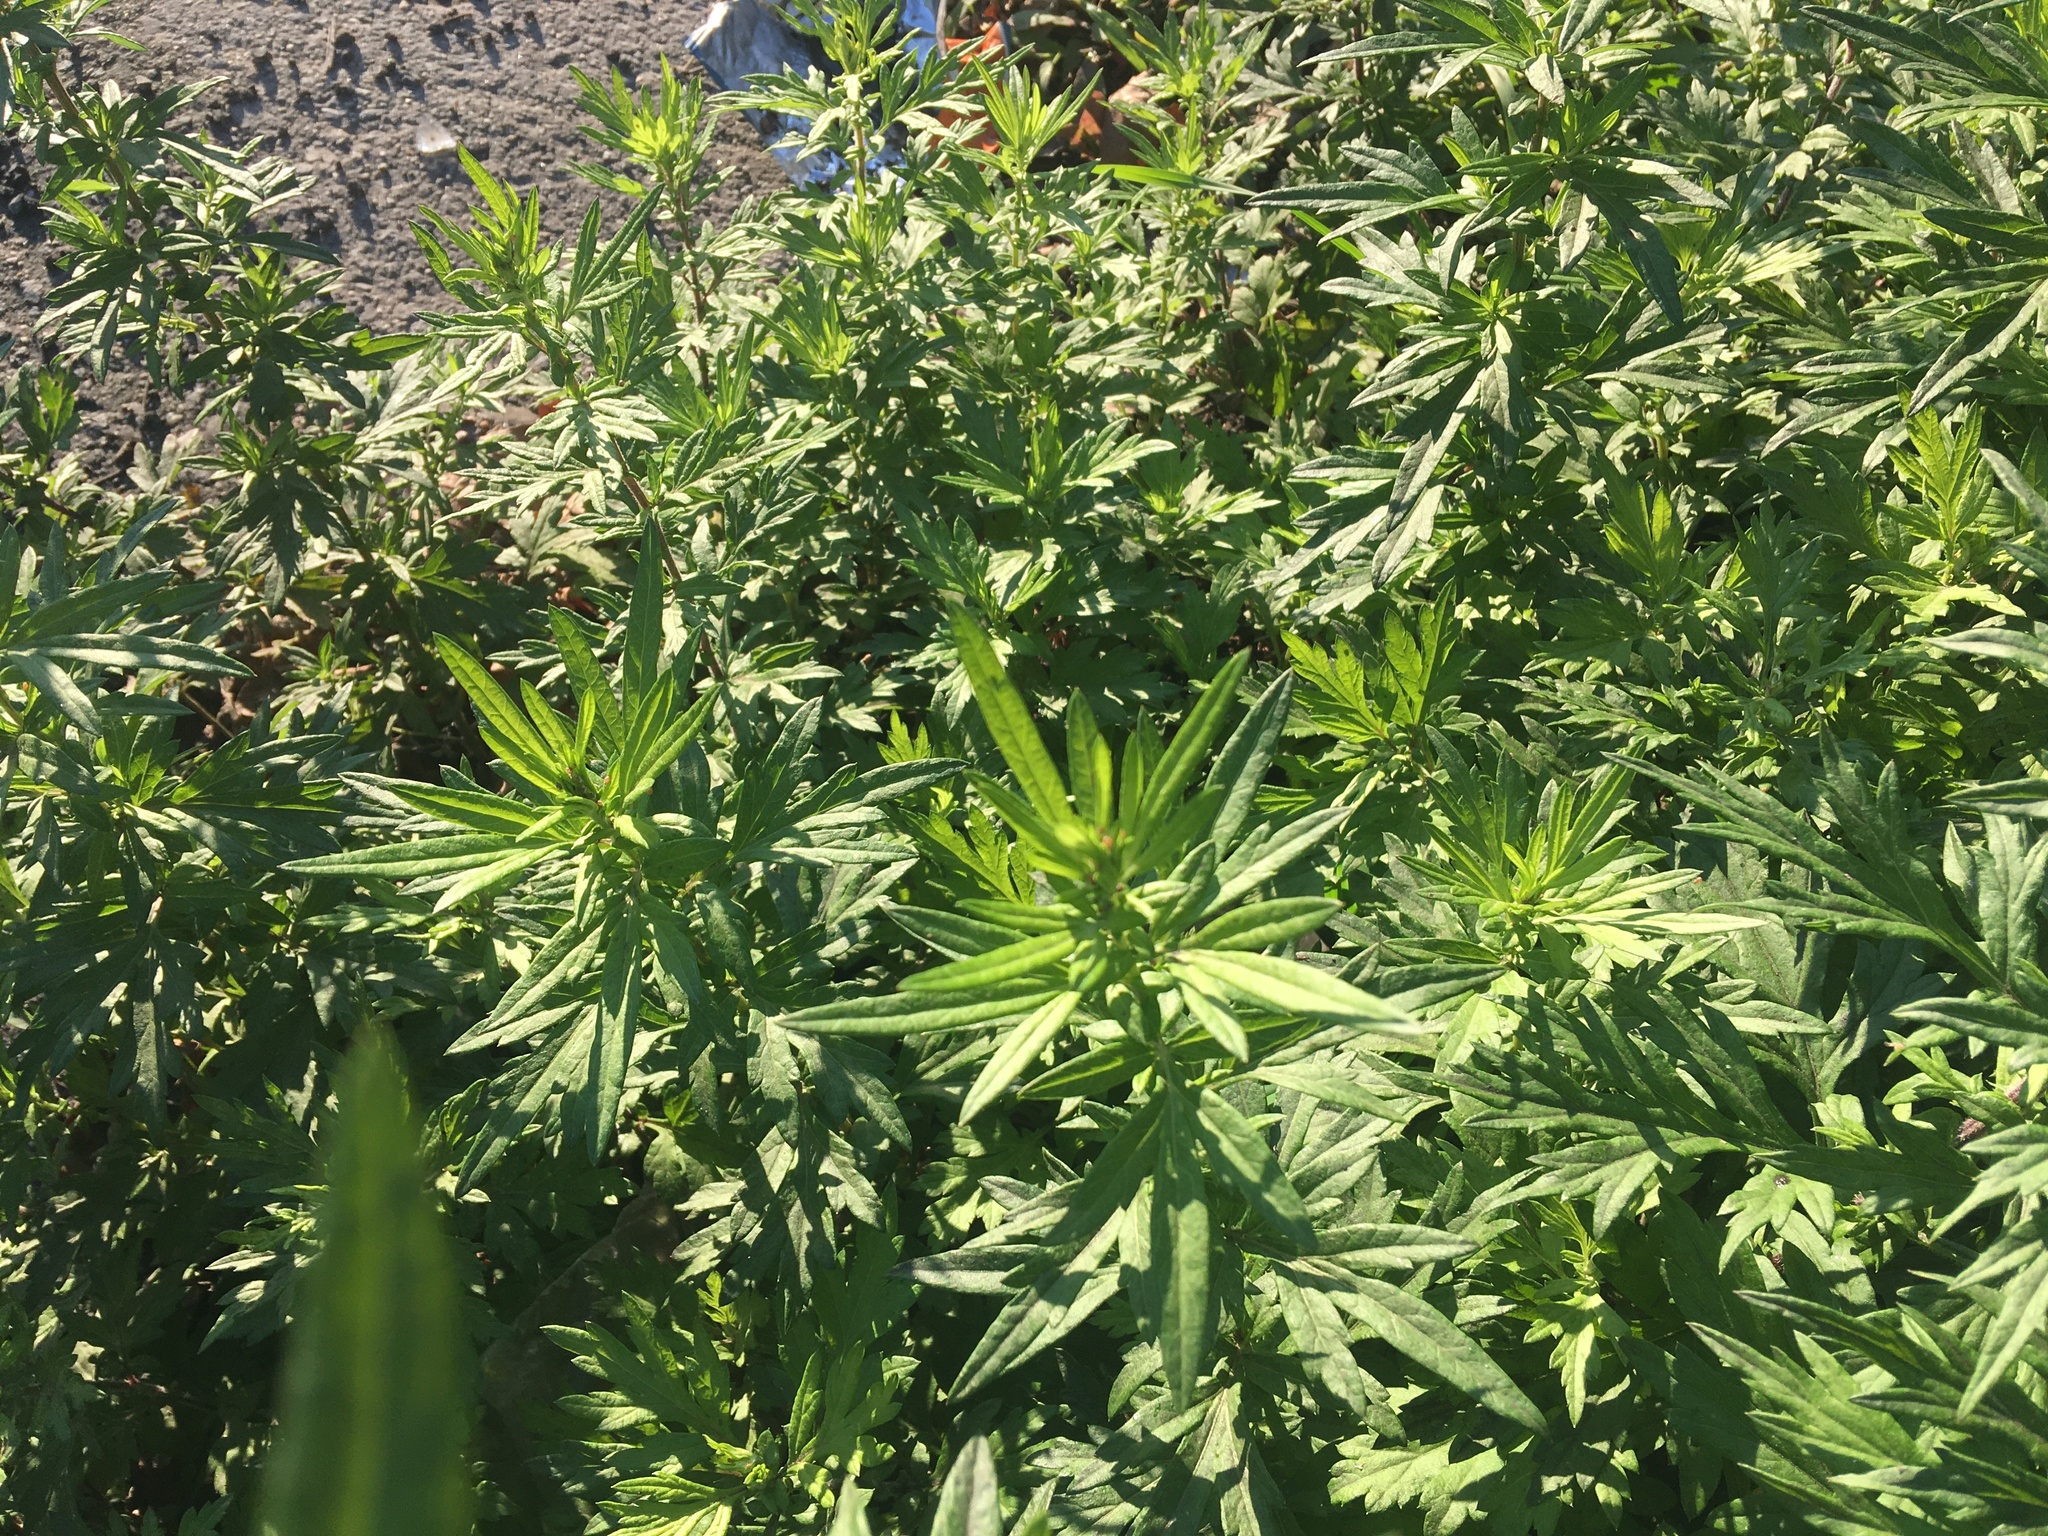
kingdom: Plantae
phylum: Tracheophyta
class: Magnoliopsida
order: Asterales
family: Asteraceae
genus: Artemisia
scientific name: Artemisia vulgaris
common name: Mugwort
